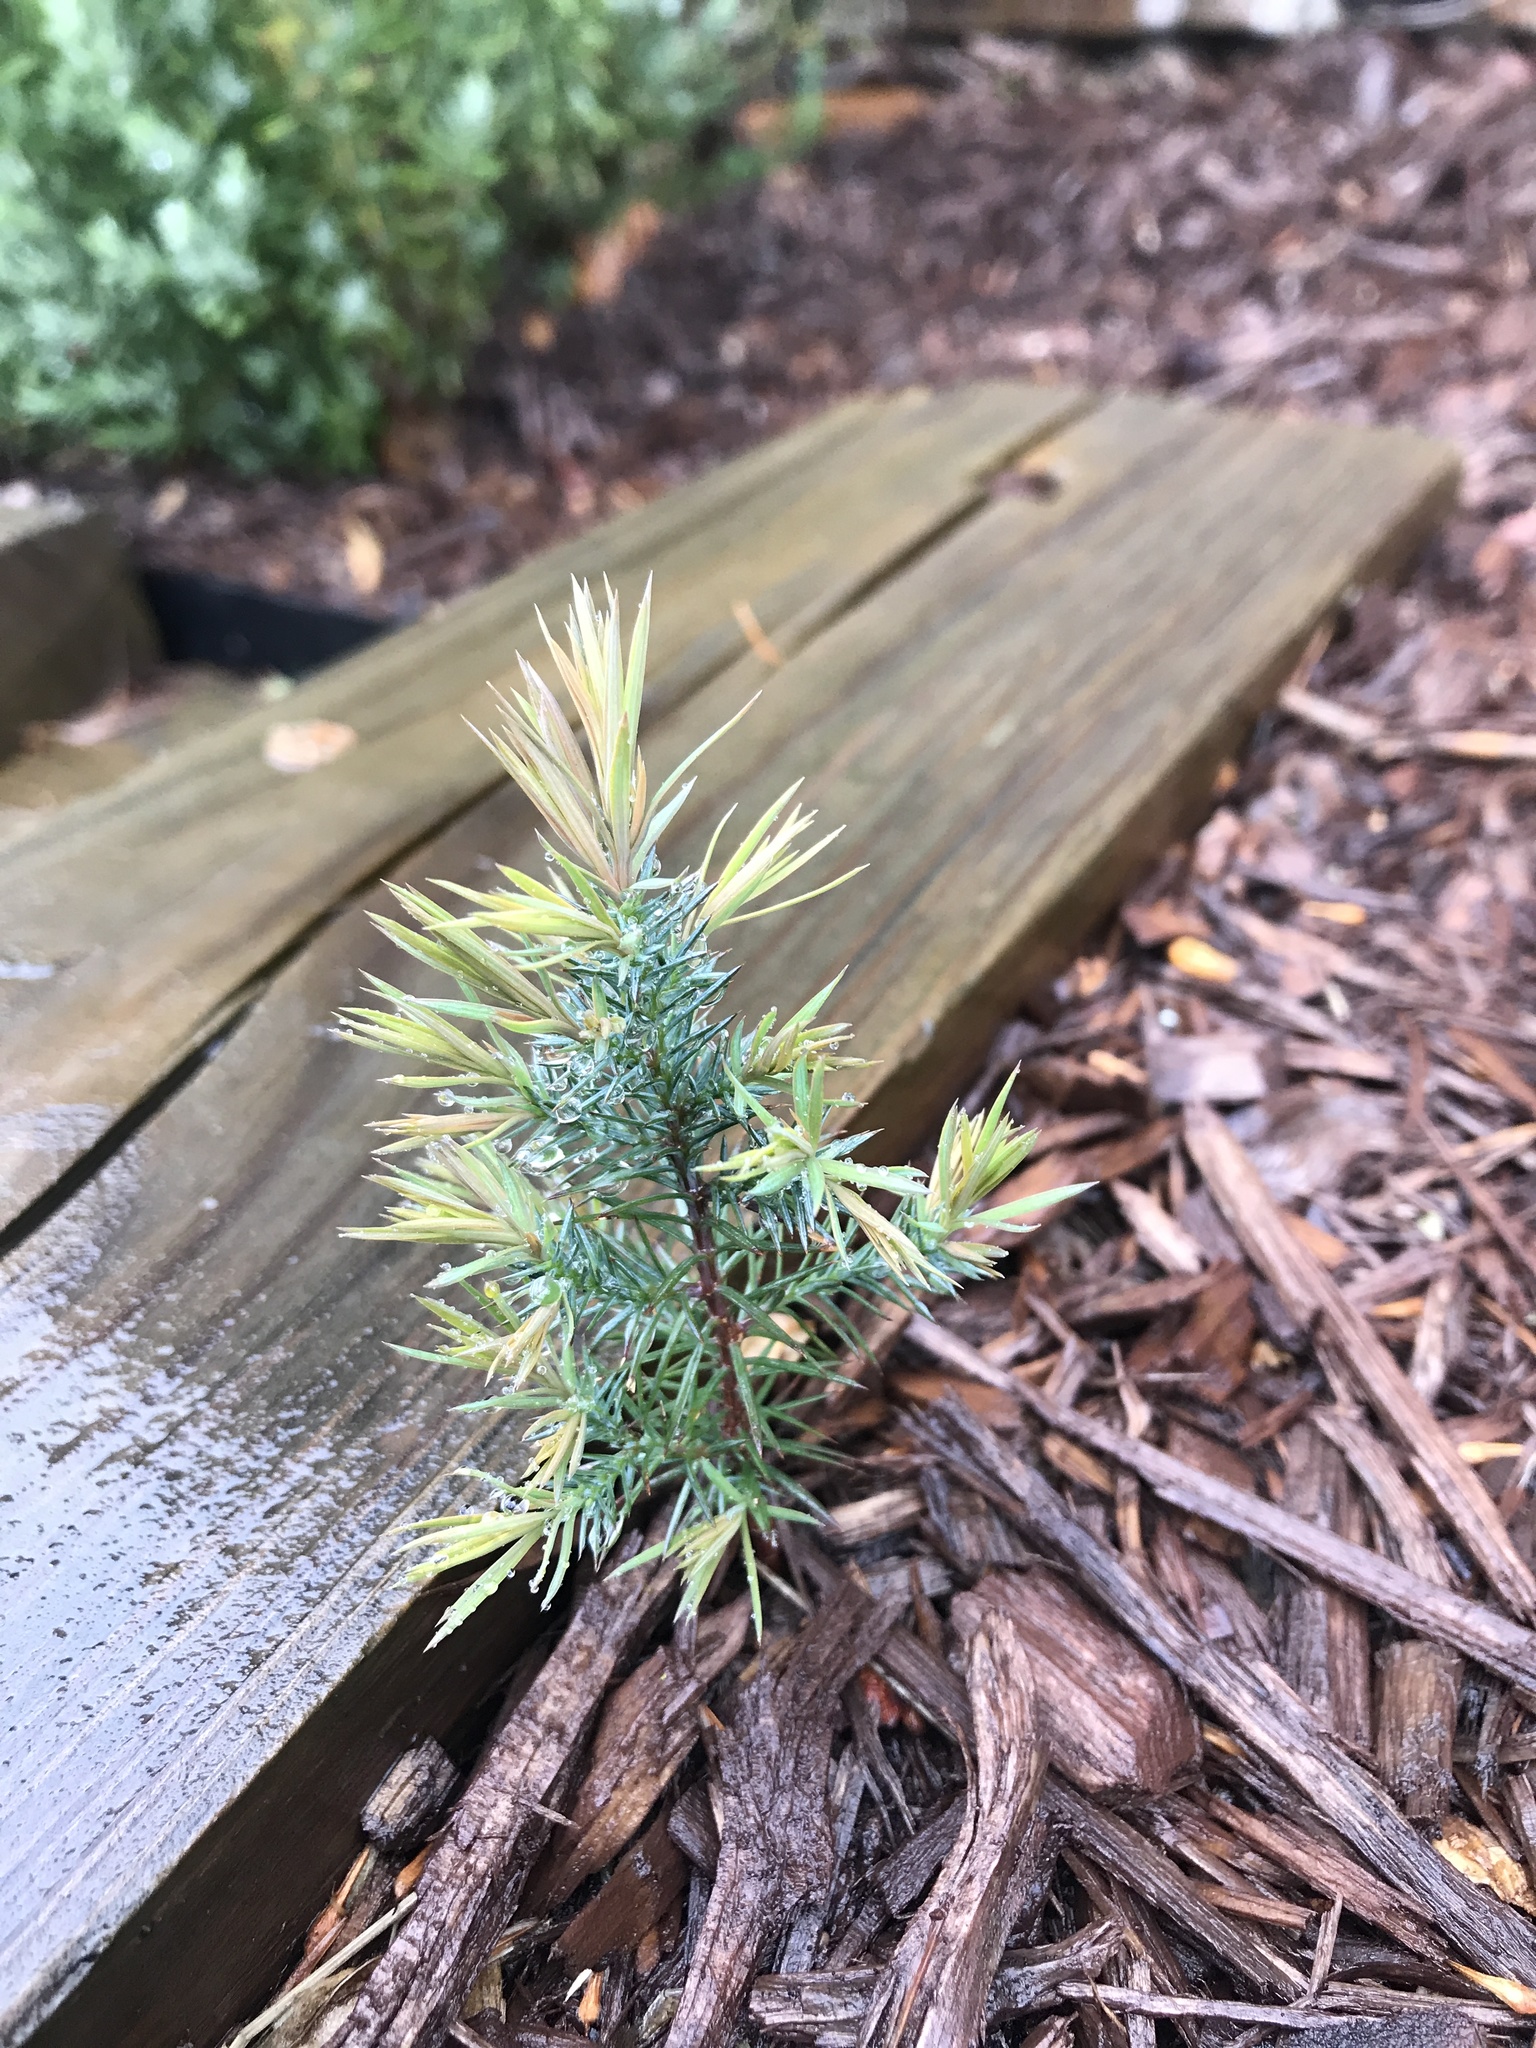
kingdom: Plantae
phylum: Tracheophyta
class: Pinopsida
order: Pinales
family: Cupressaceae
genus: Juniperus
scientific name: Juniperus virginiana
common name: Red juniper
